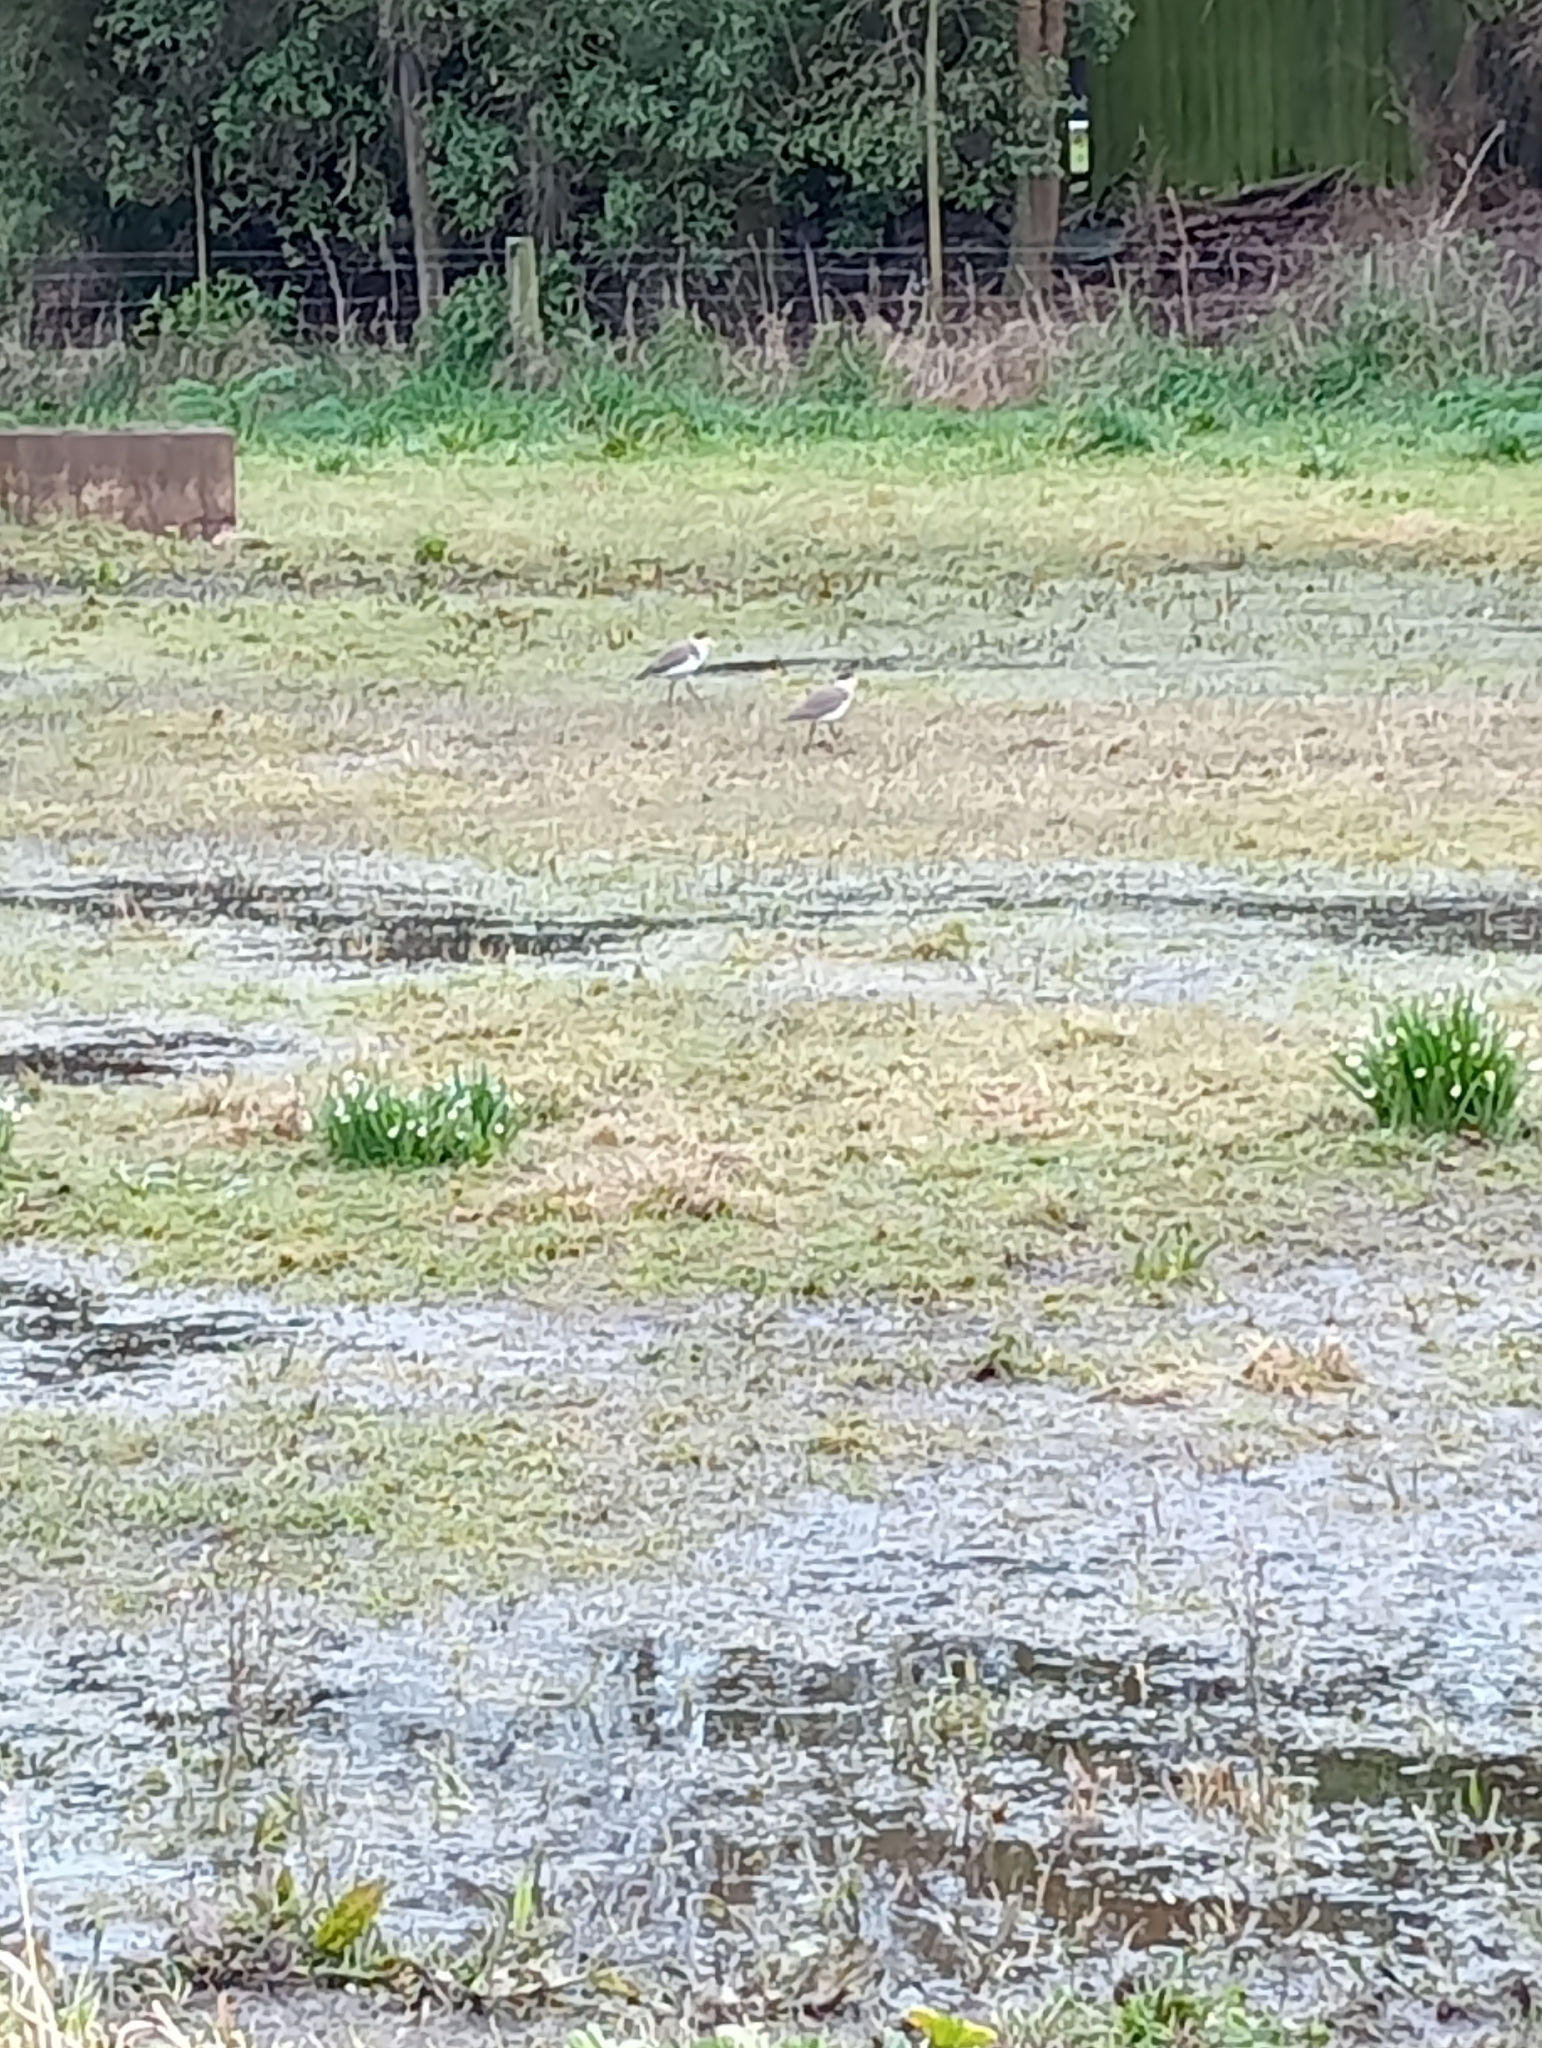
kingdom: Animalia
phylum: Chordata
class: Aves
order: Charadriiformes
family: Charadriidae
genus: Vanellus
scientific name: Vanellus miles
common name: Masked lapwing
